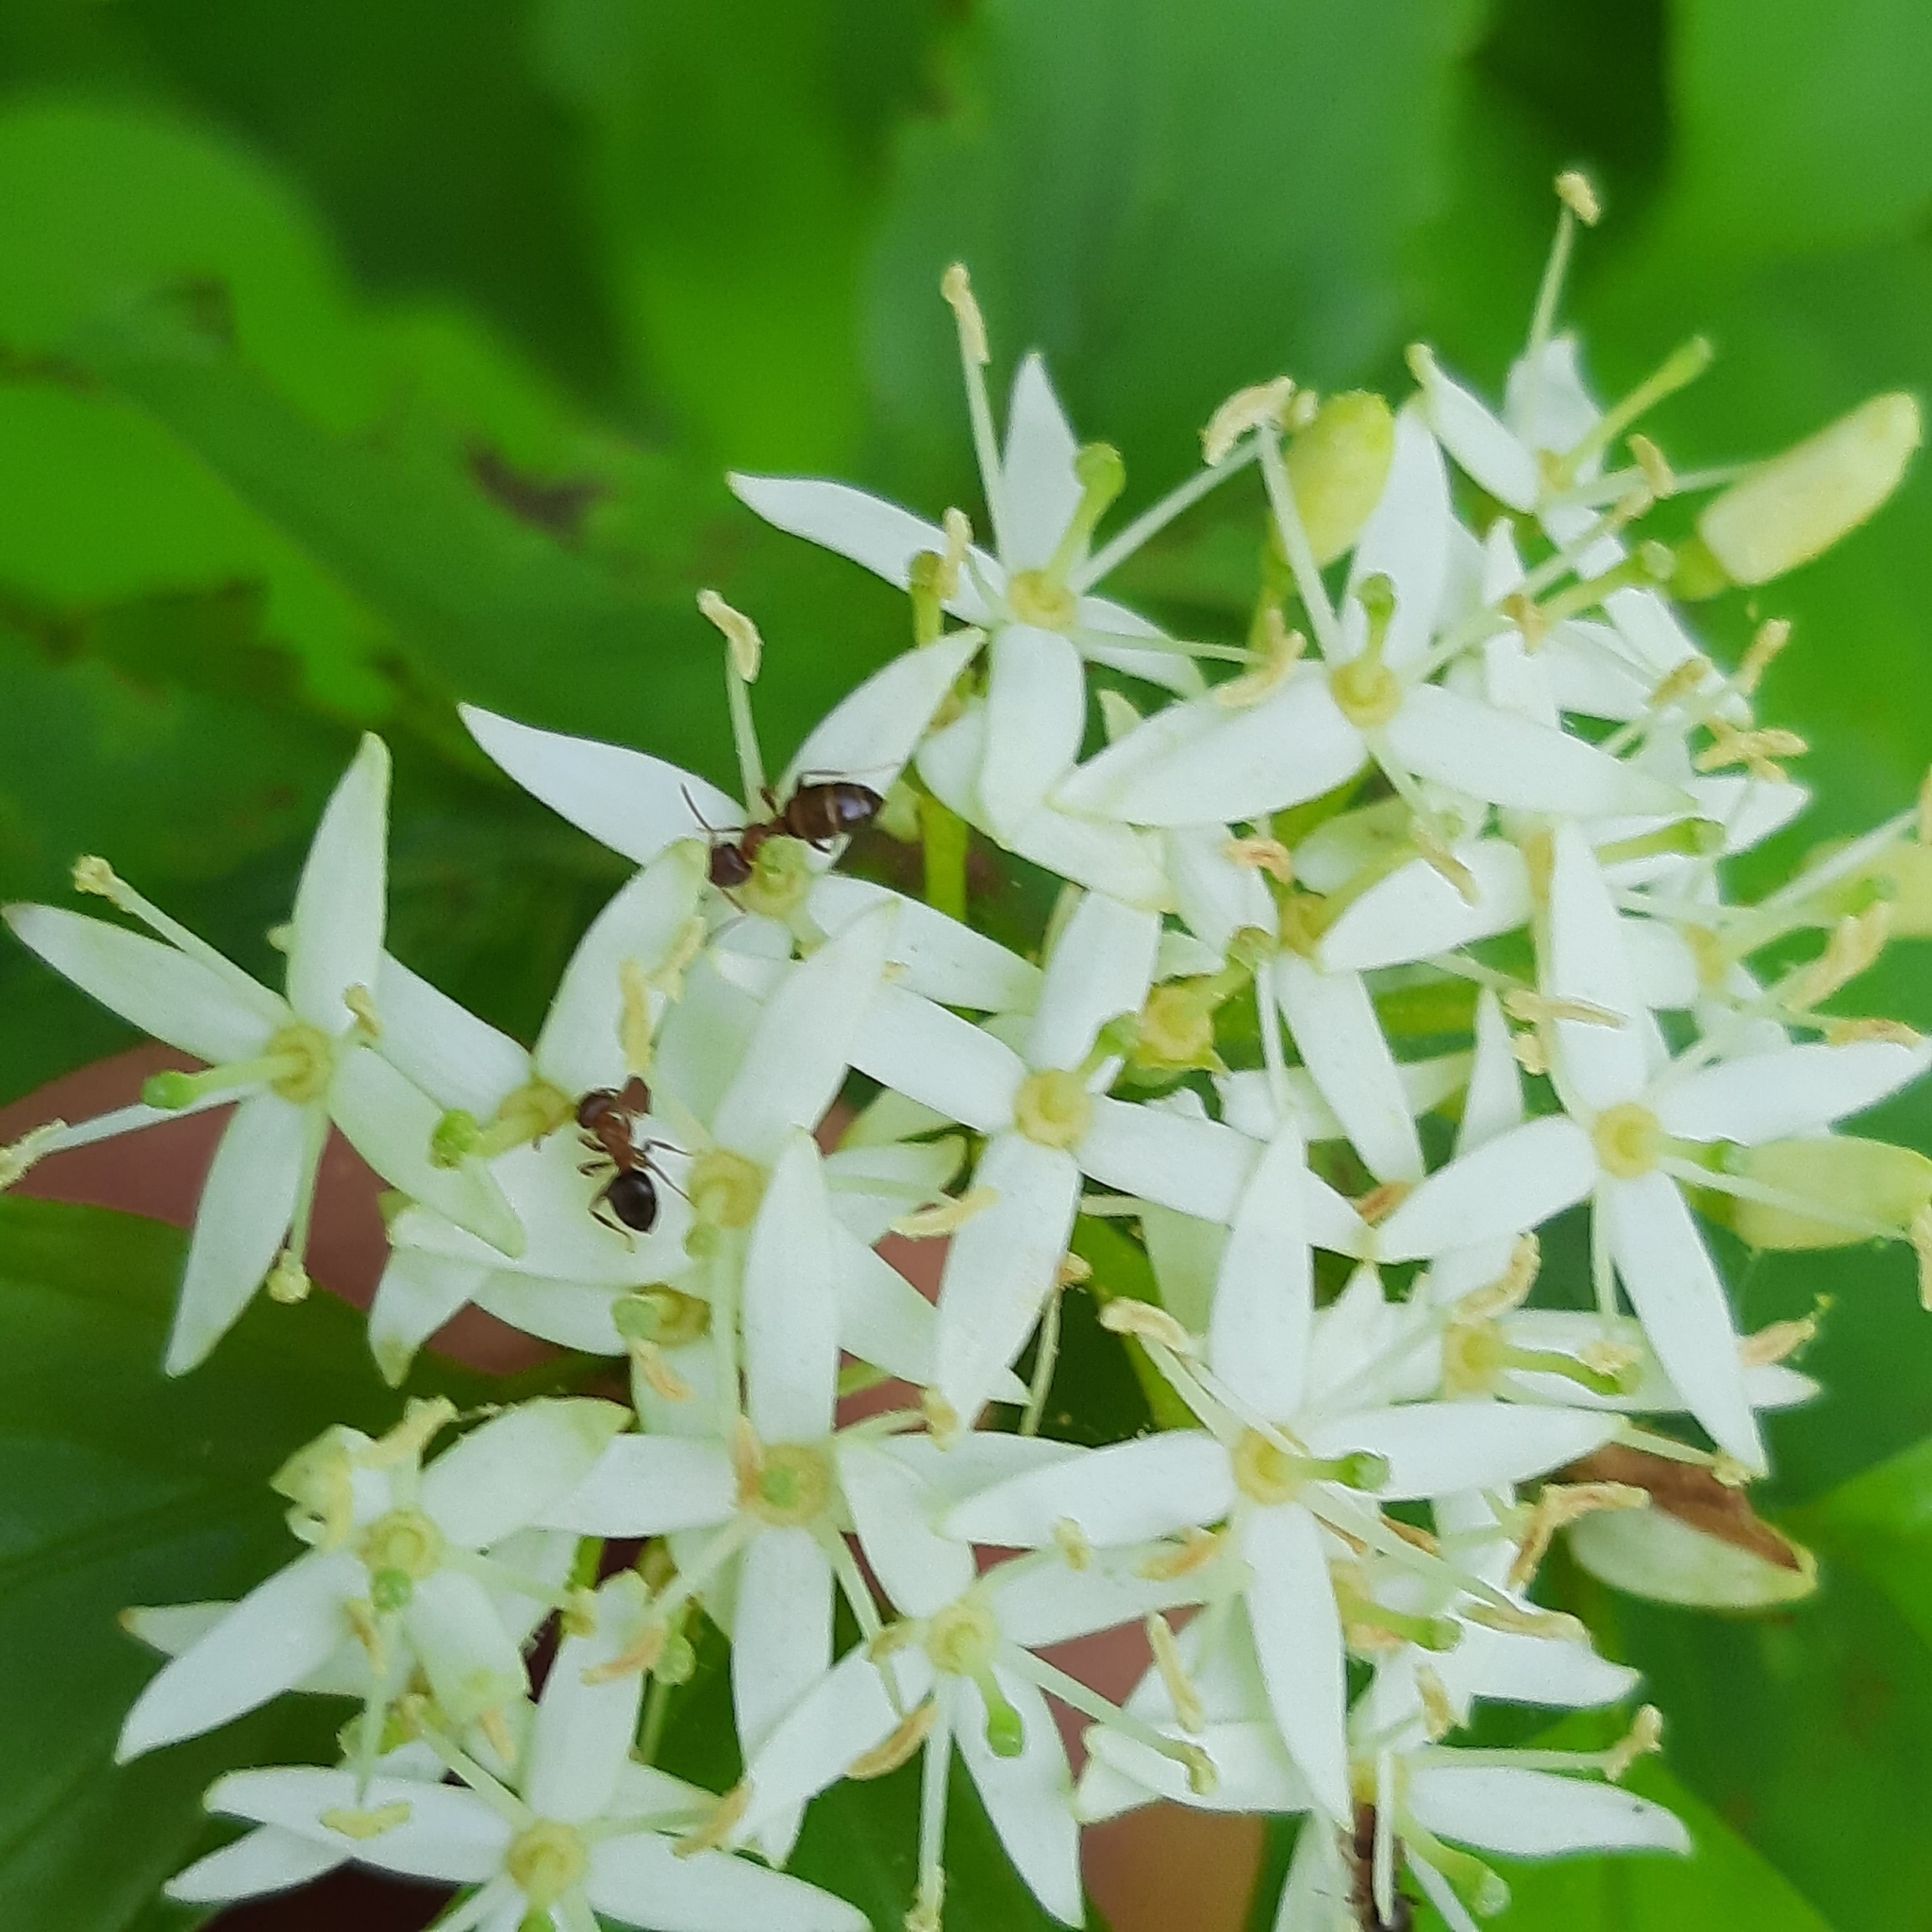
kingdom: Plantae
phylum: Tracheophyta
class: Magnoliopsida
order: Cornales
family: Cornaceae
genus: Cornus
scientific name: Cornus sanguinea
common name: Dogwood
